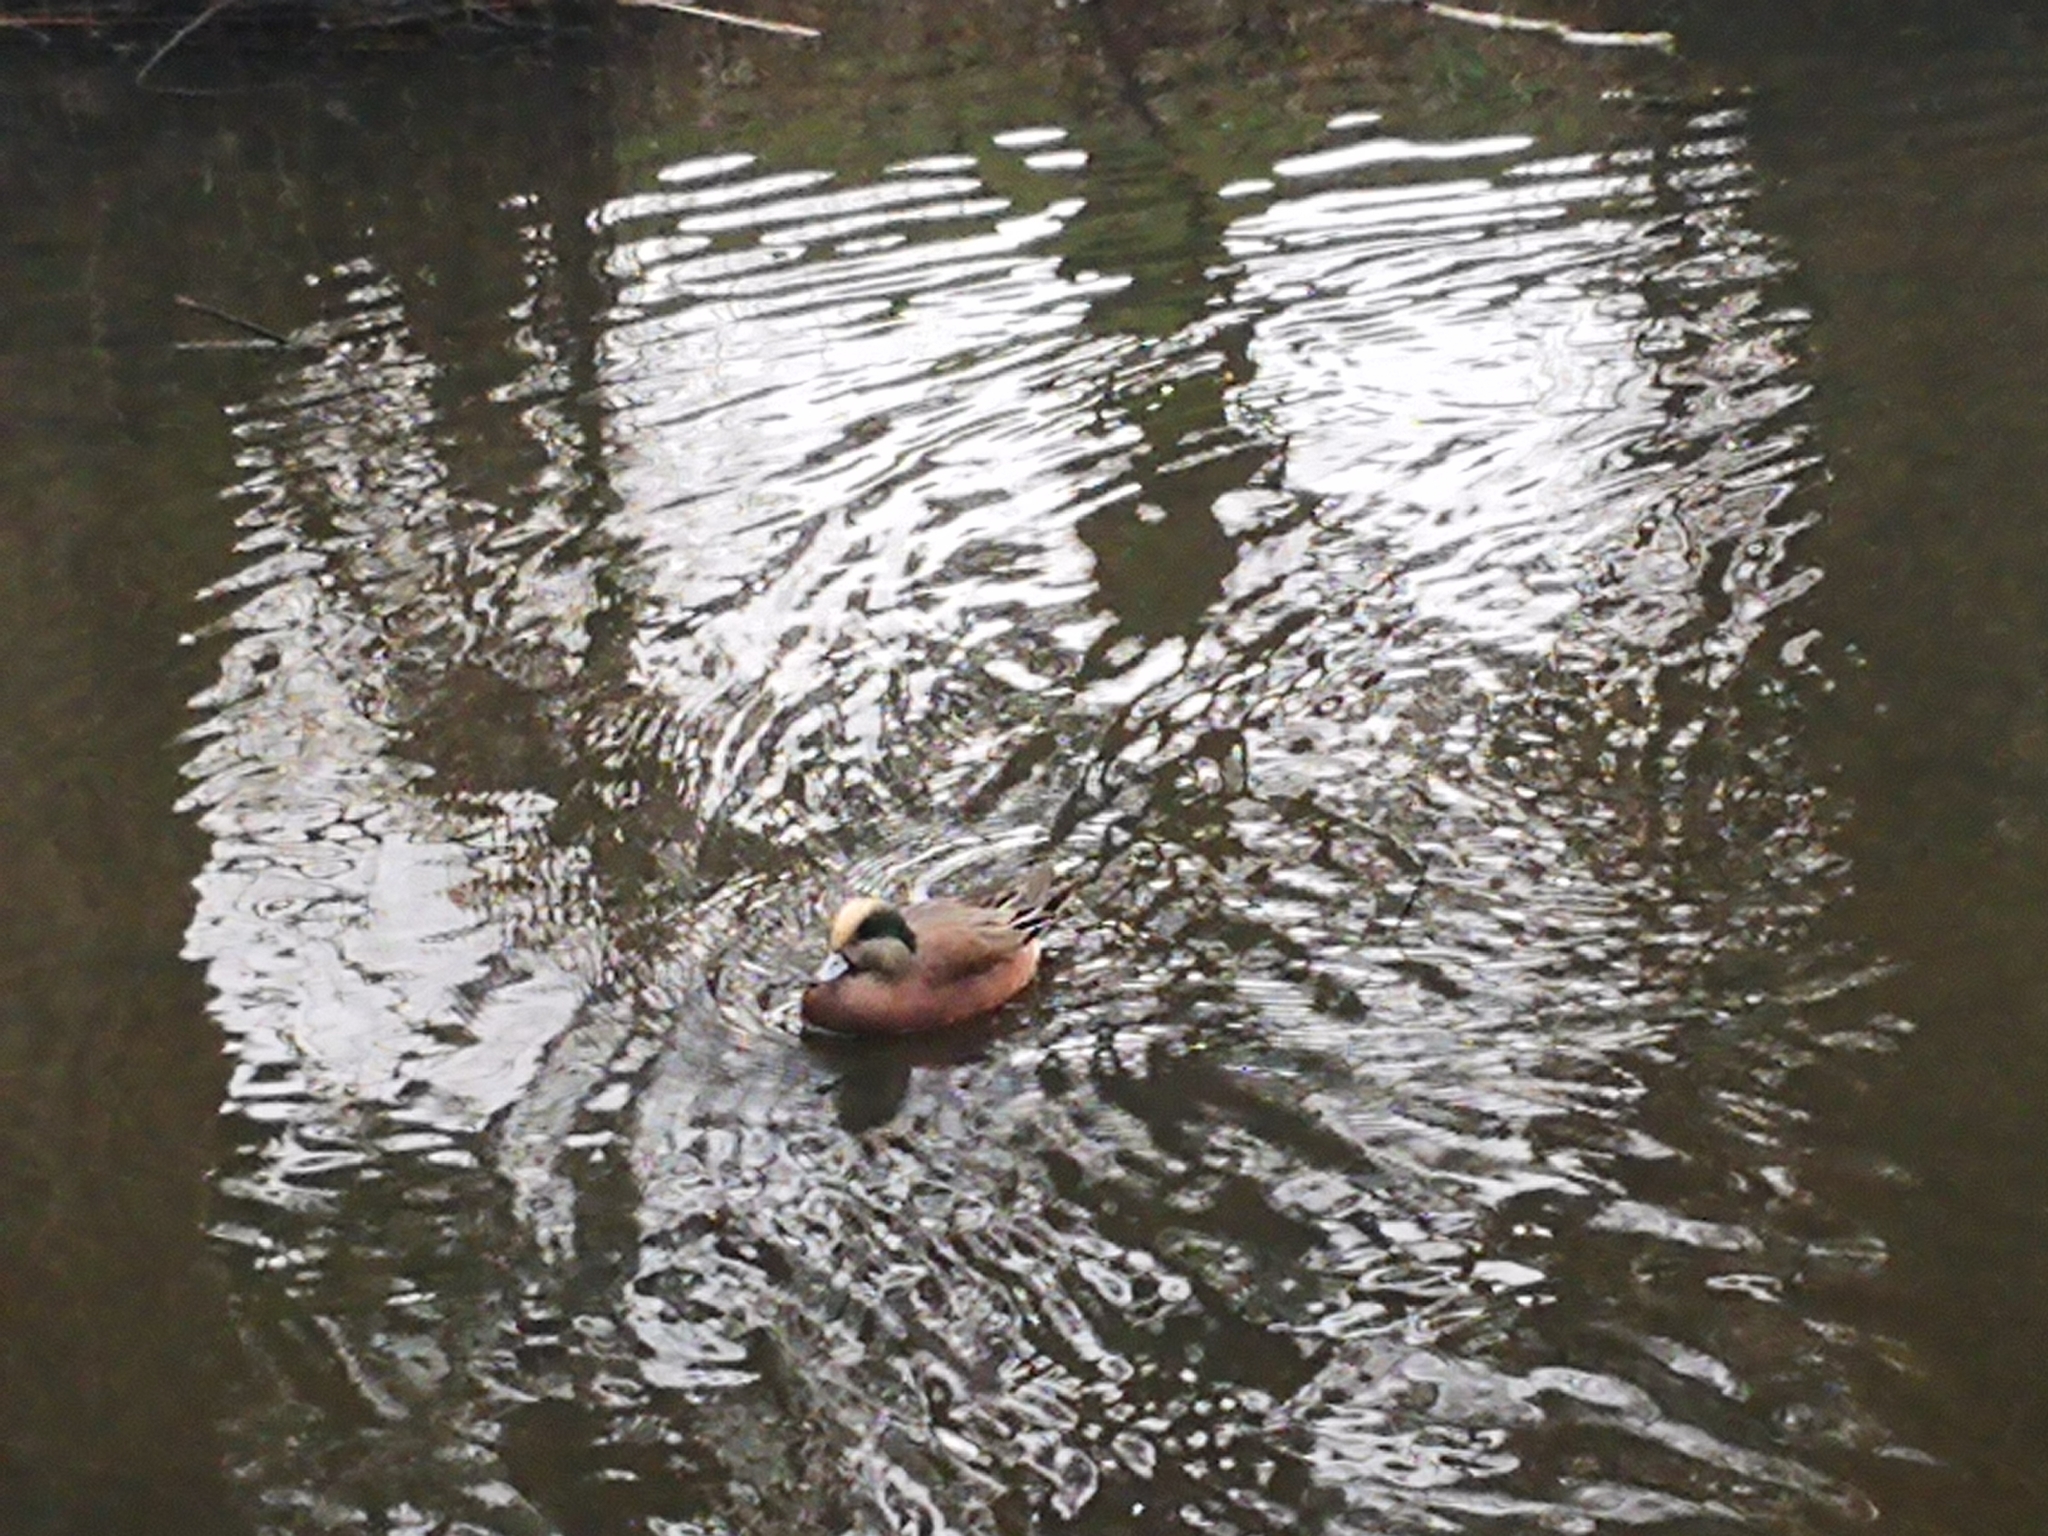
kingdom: Animalia
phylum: Chordata
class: Aves
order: Anseriformes
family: Anatidae
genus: Mareca
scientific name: Mareca americana
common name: American wigeon
